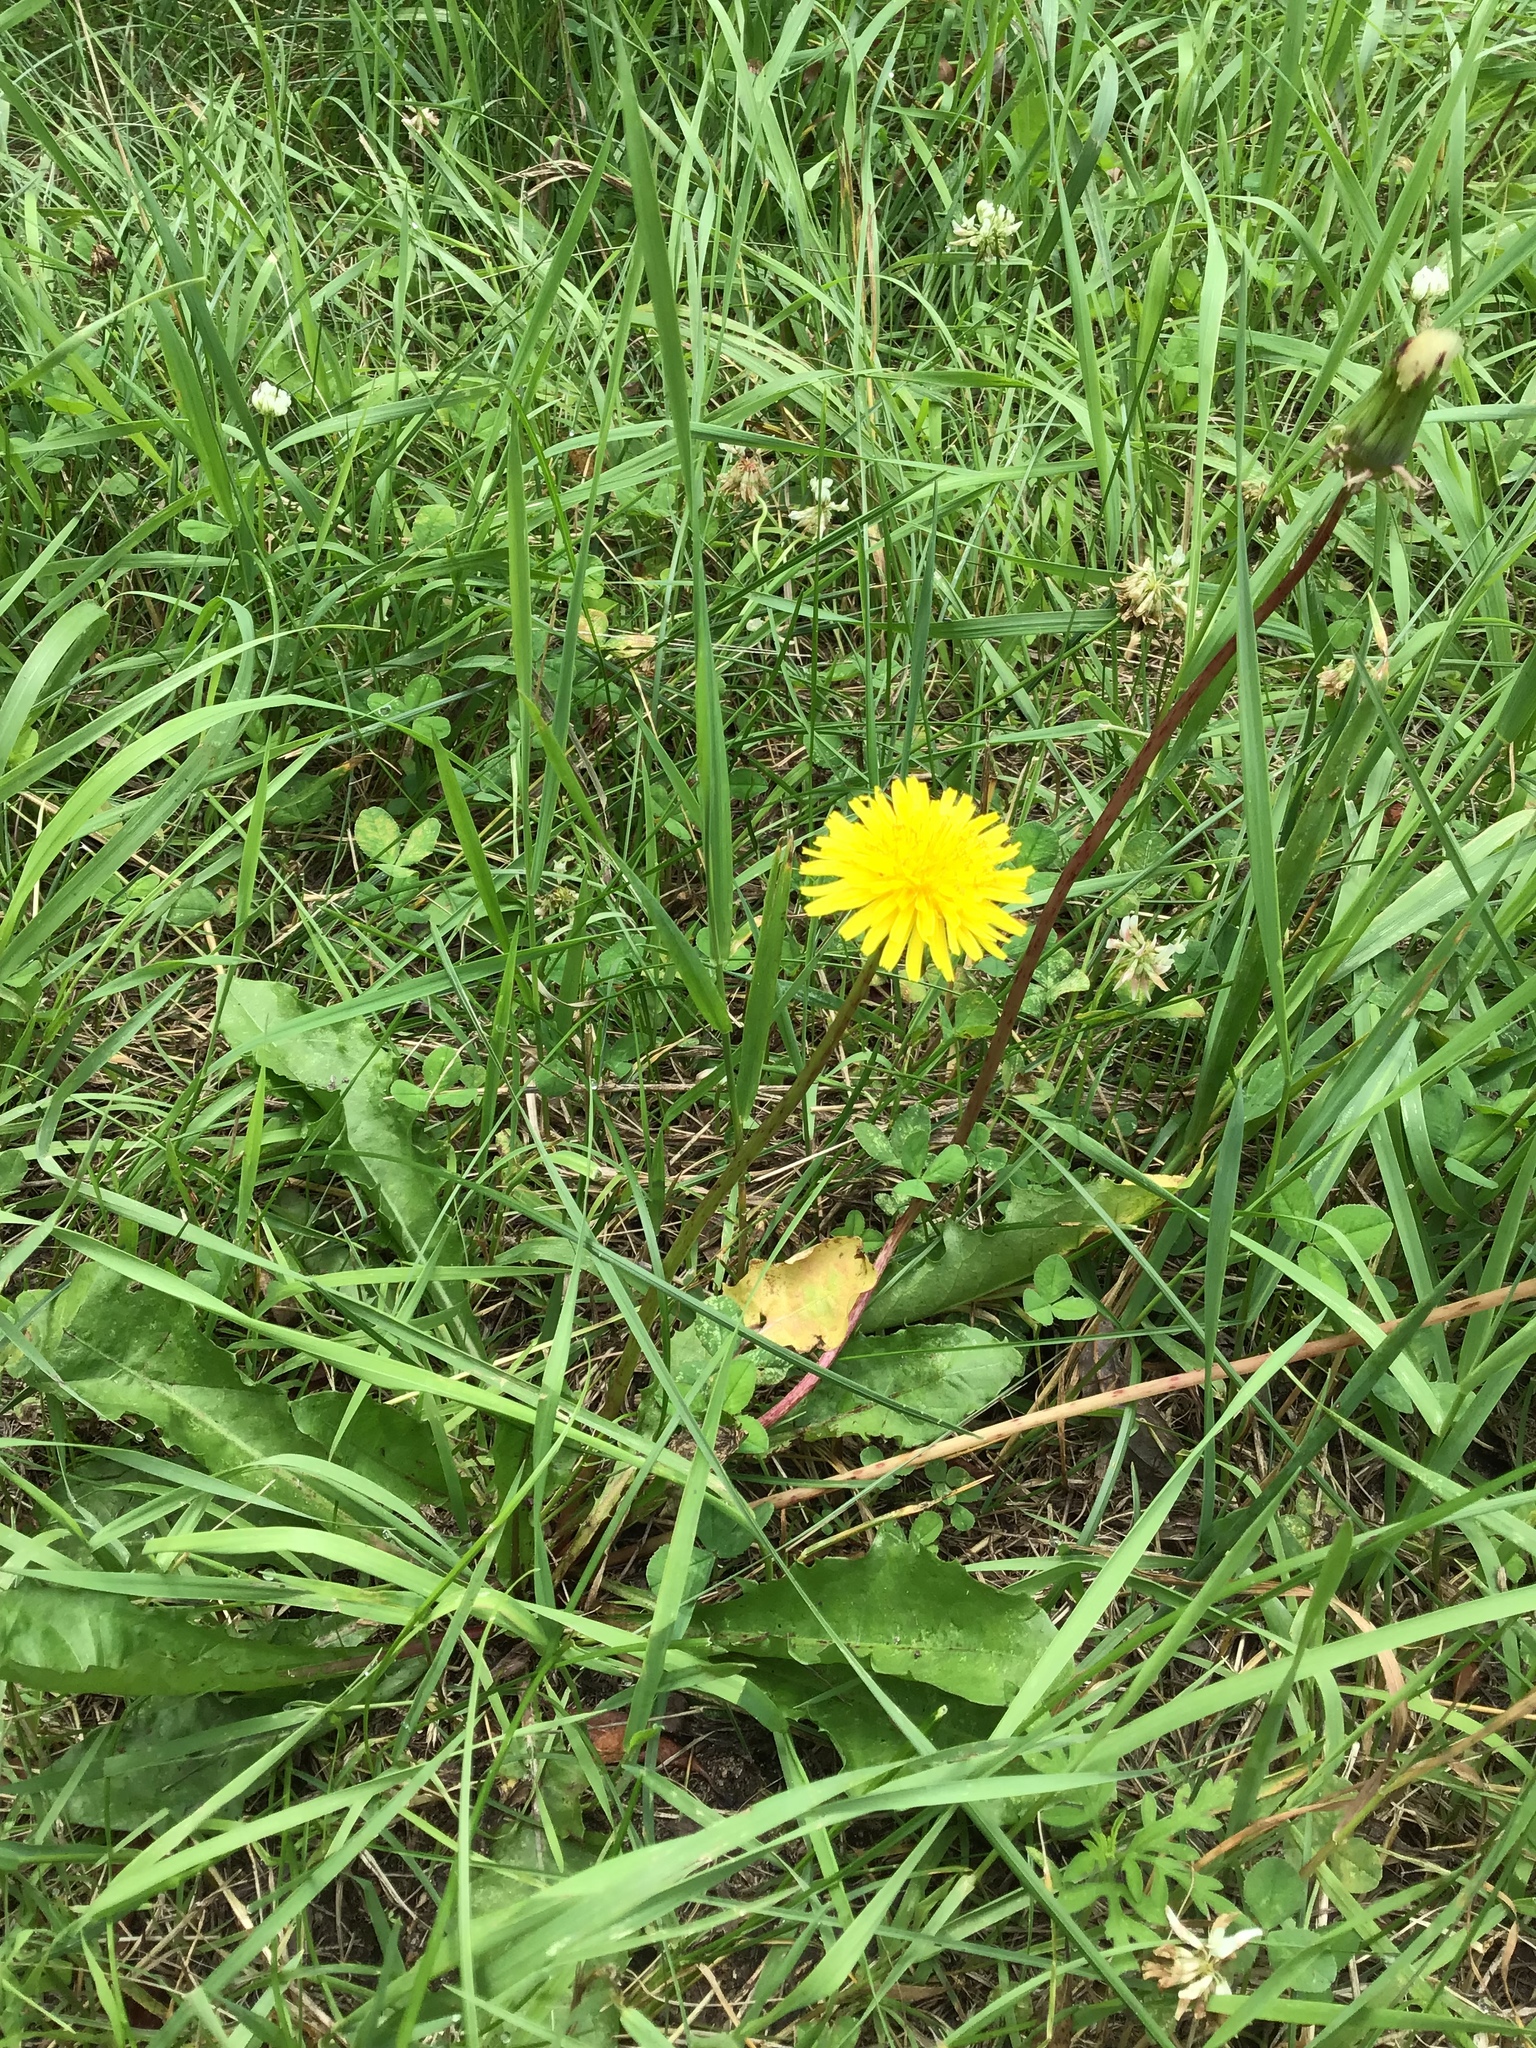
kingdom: Plantae
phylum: Tracheophyta
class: Magnoliopsida
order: Asterales
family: Asteraceae
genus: Taraxacum
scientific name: Taraxacum officinale
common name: Common dandelion
